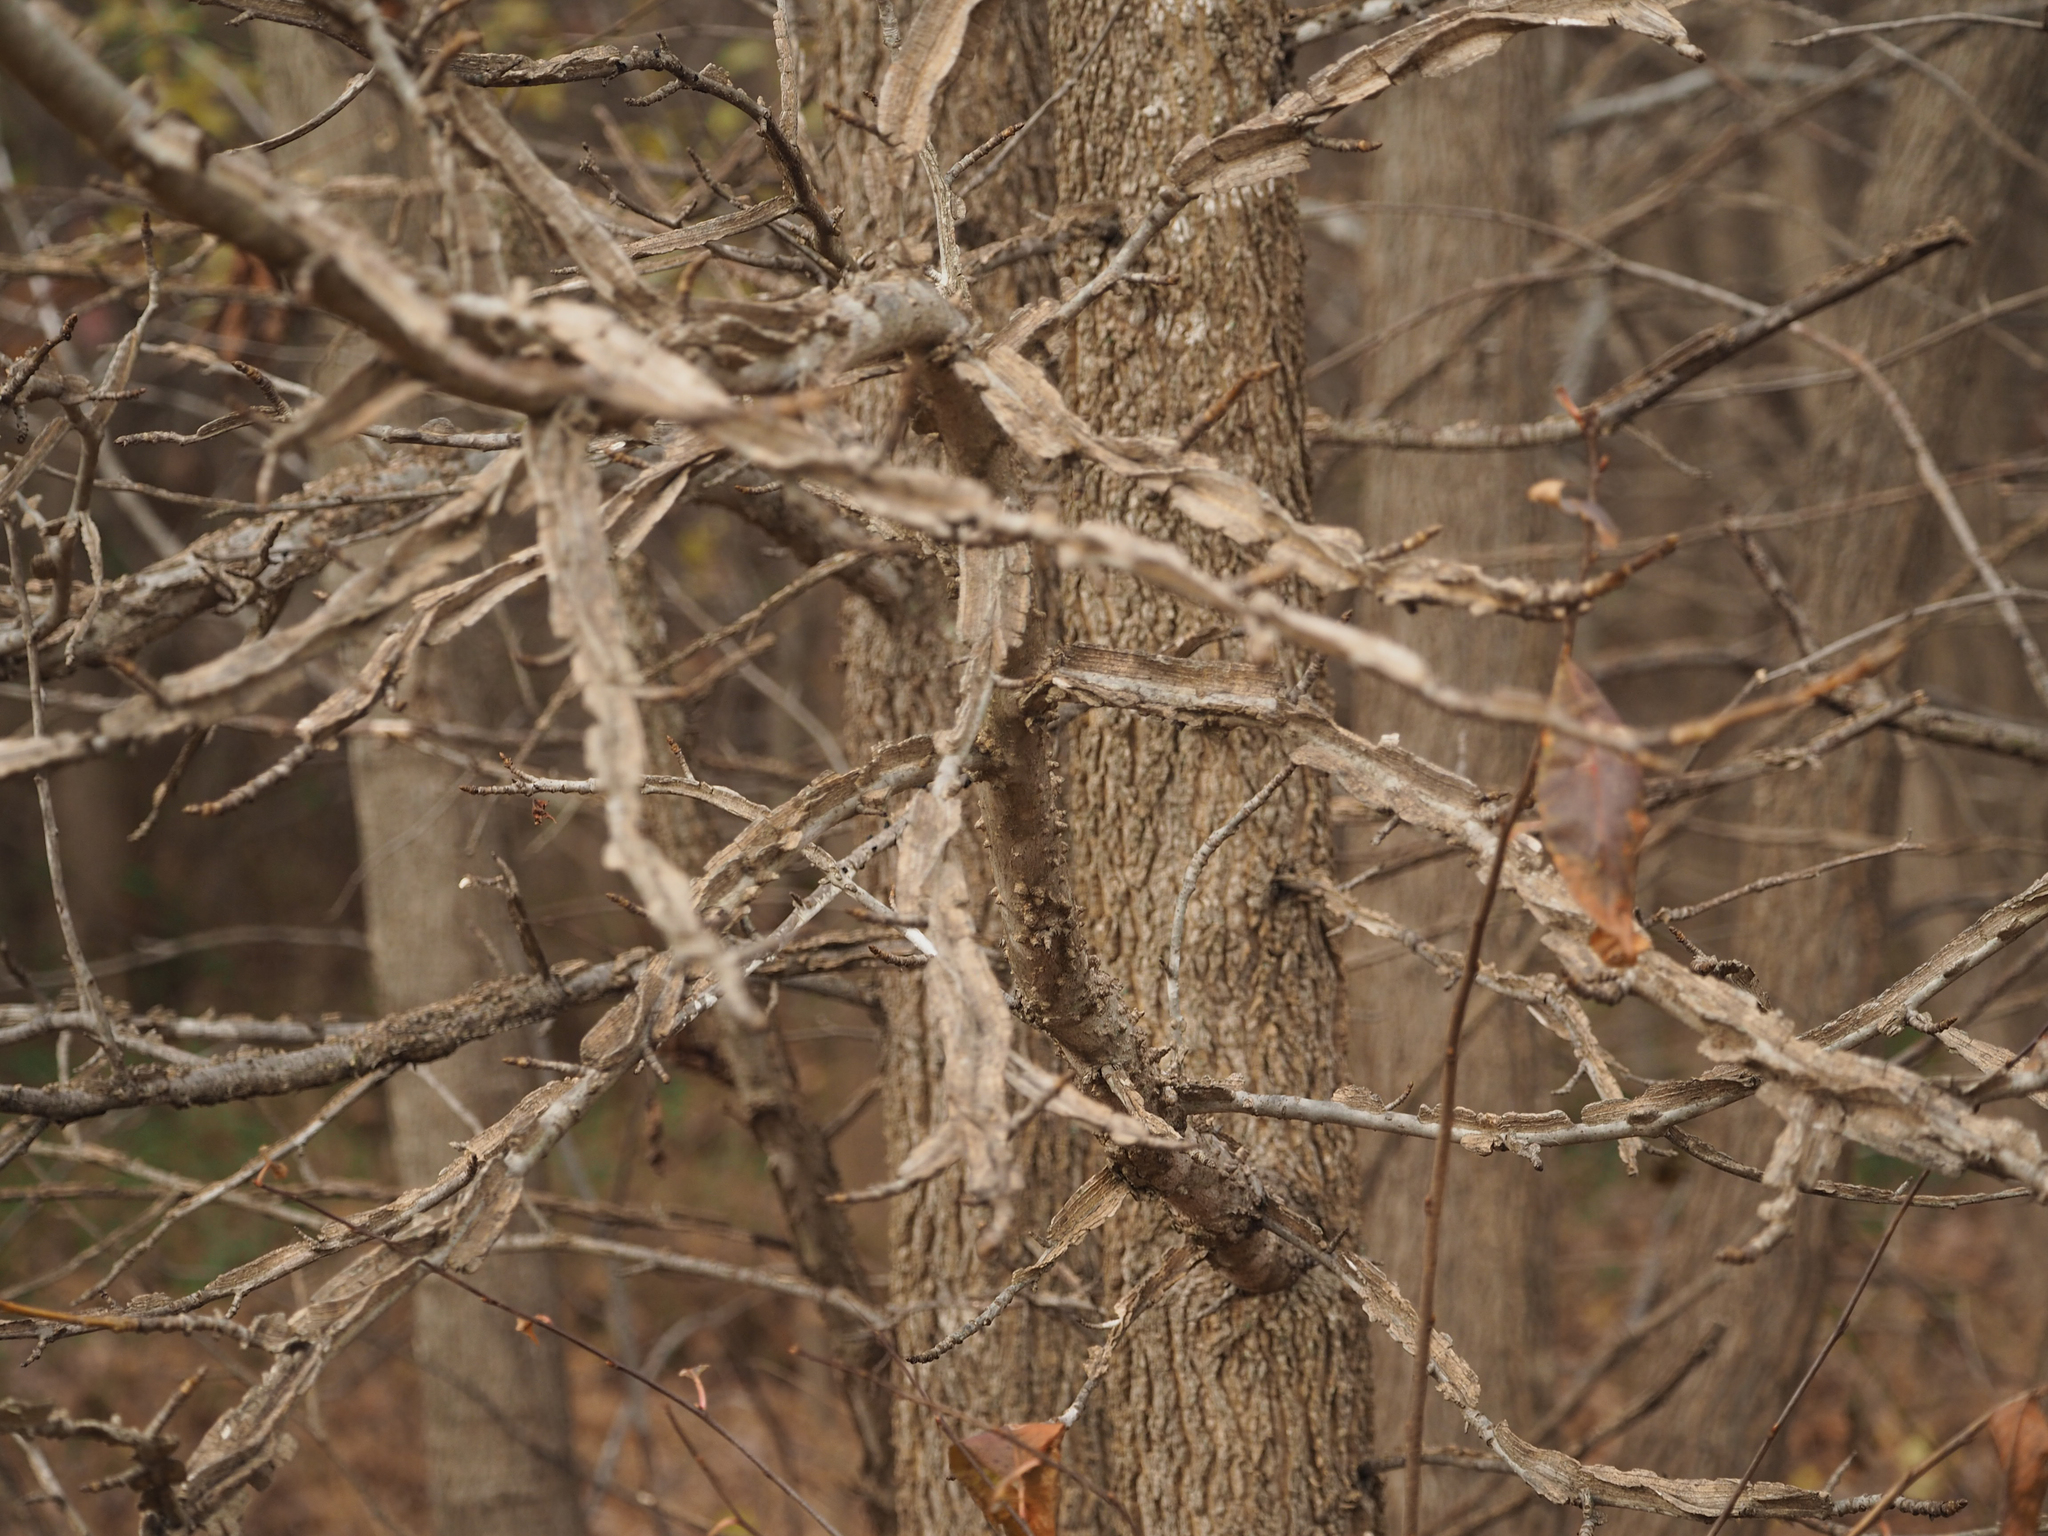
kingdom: Plantae
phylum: Tracheophyta
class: Magnoliopsida
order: Saxifragales
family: Altingiaceae
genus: Liquidambar
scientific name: Liquidambar styraciflua
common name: Sweet gum
